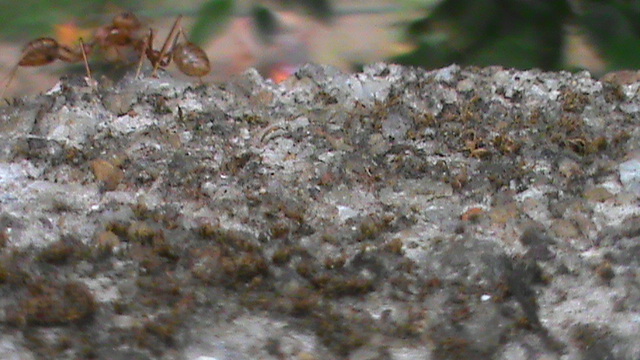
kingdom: Animalia
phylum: Arthropoda
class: Insecta
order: Hymenoptera
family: Formicidae
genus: Oecophylla
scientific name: Oecophylla smaragdina
